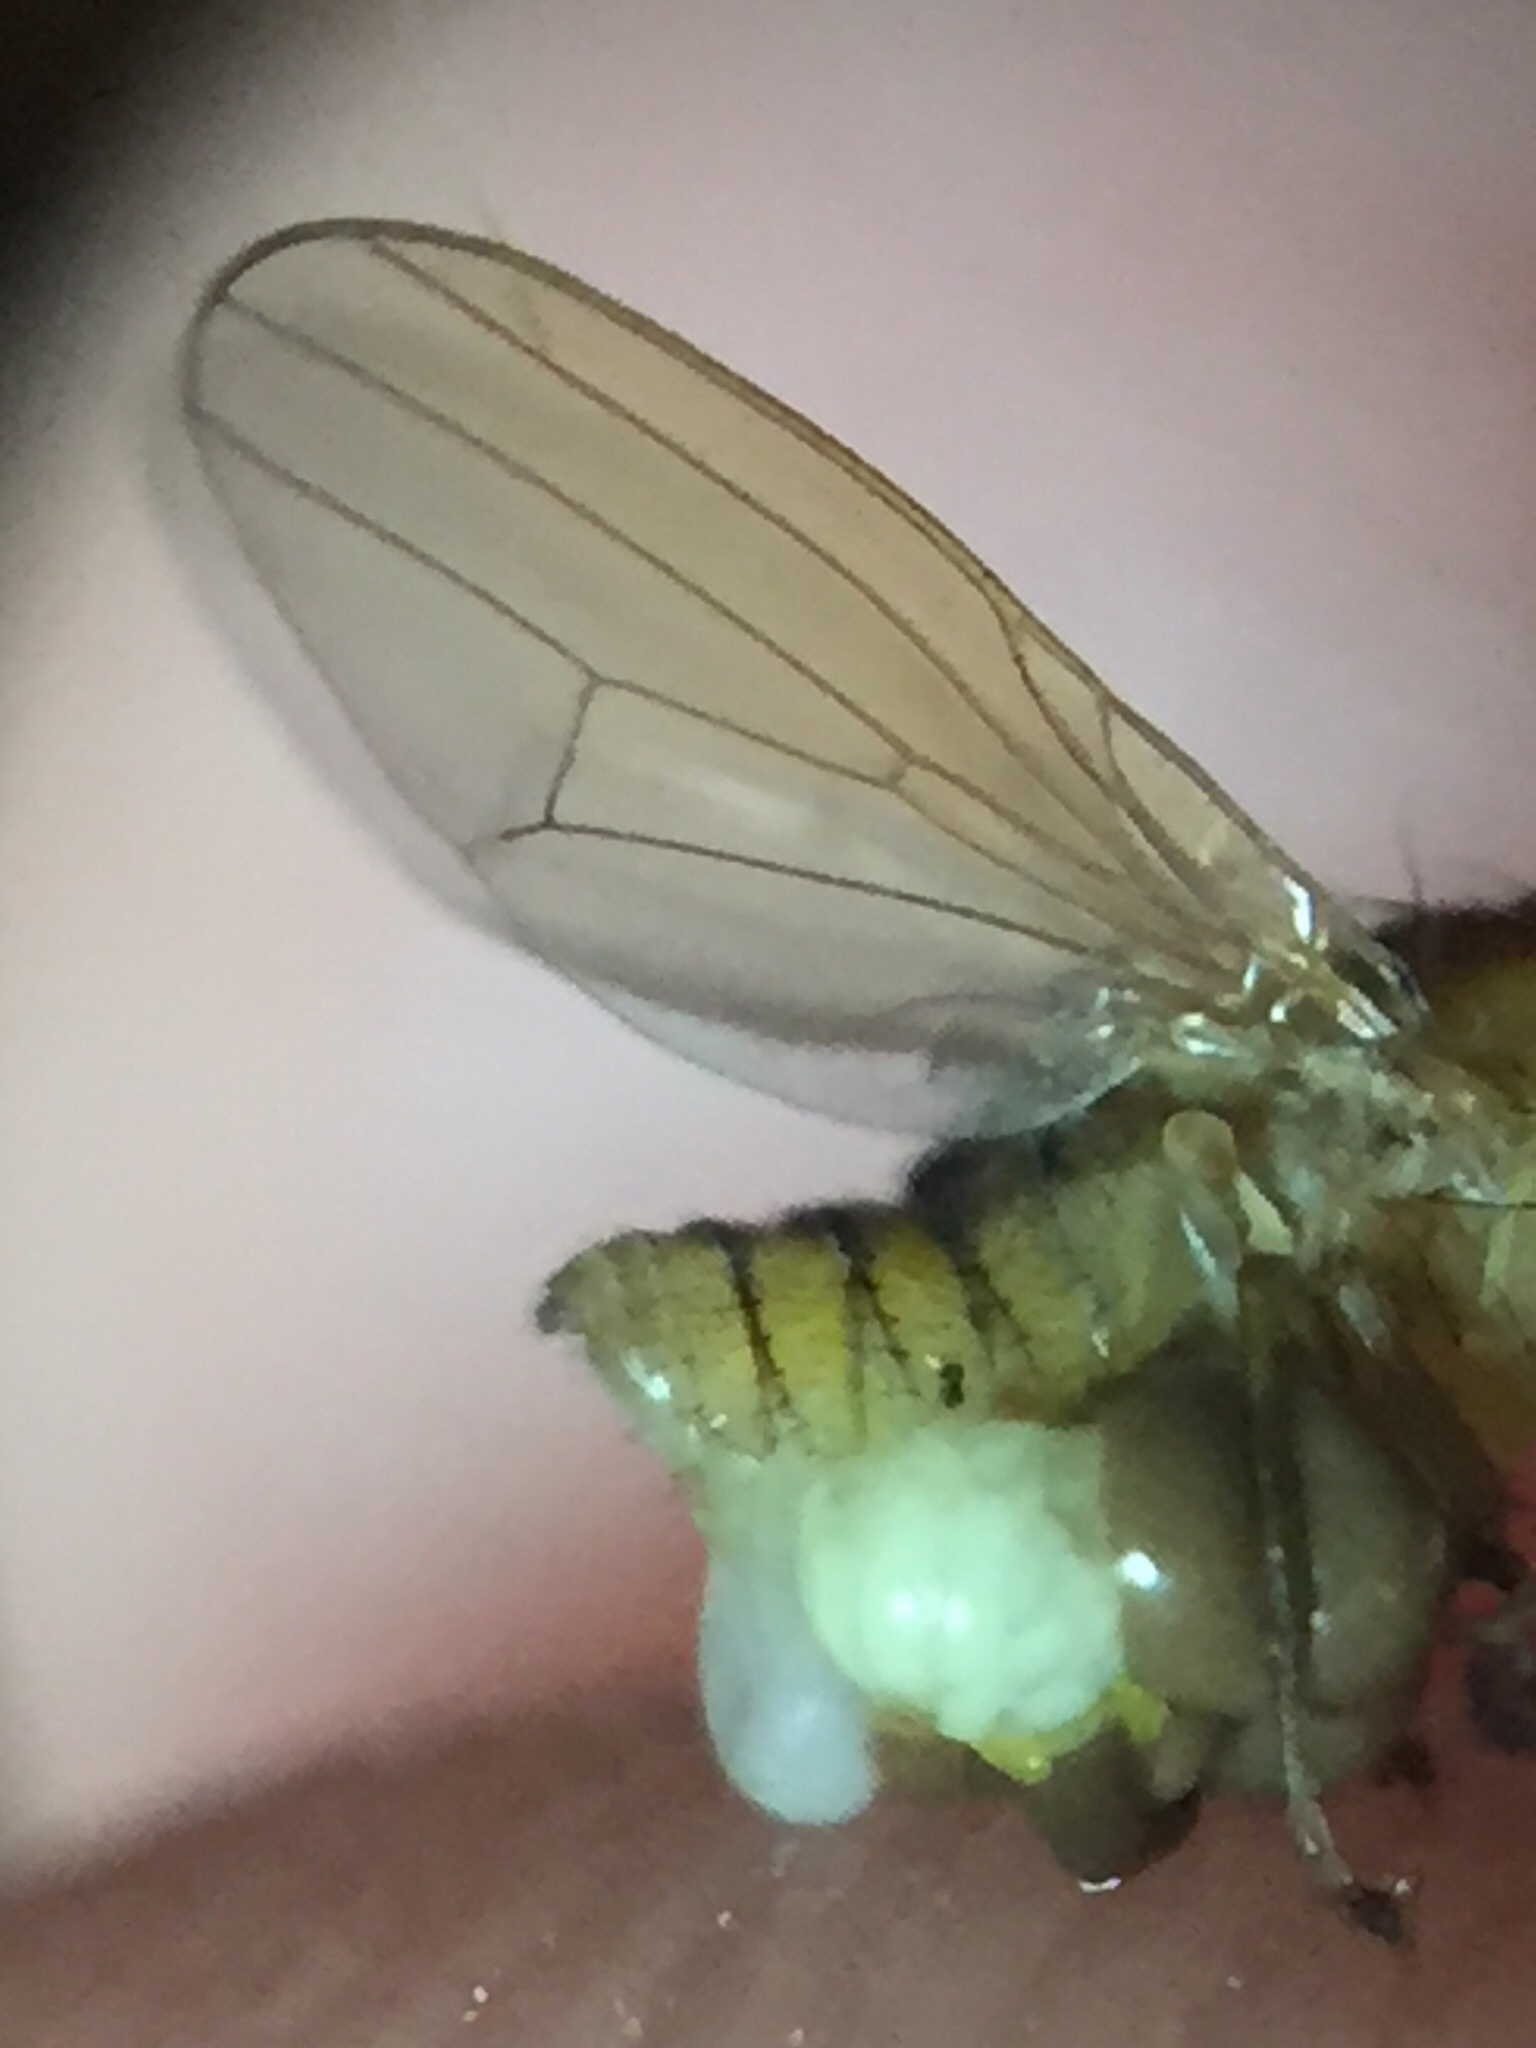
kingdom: Animalia
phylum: Arthropoda
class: Insecta
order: Diptera
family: Lauxaniidae
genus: Sapromyza
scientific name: Sapromyza persimillima
